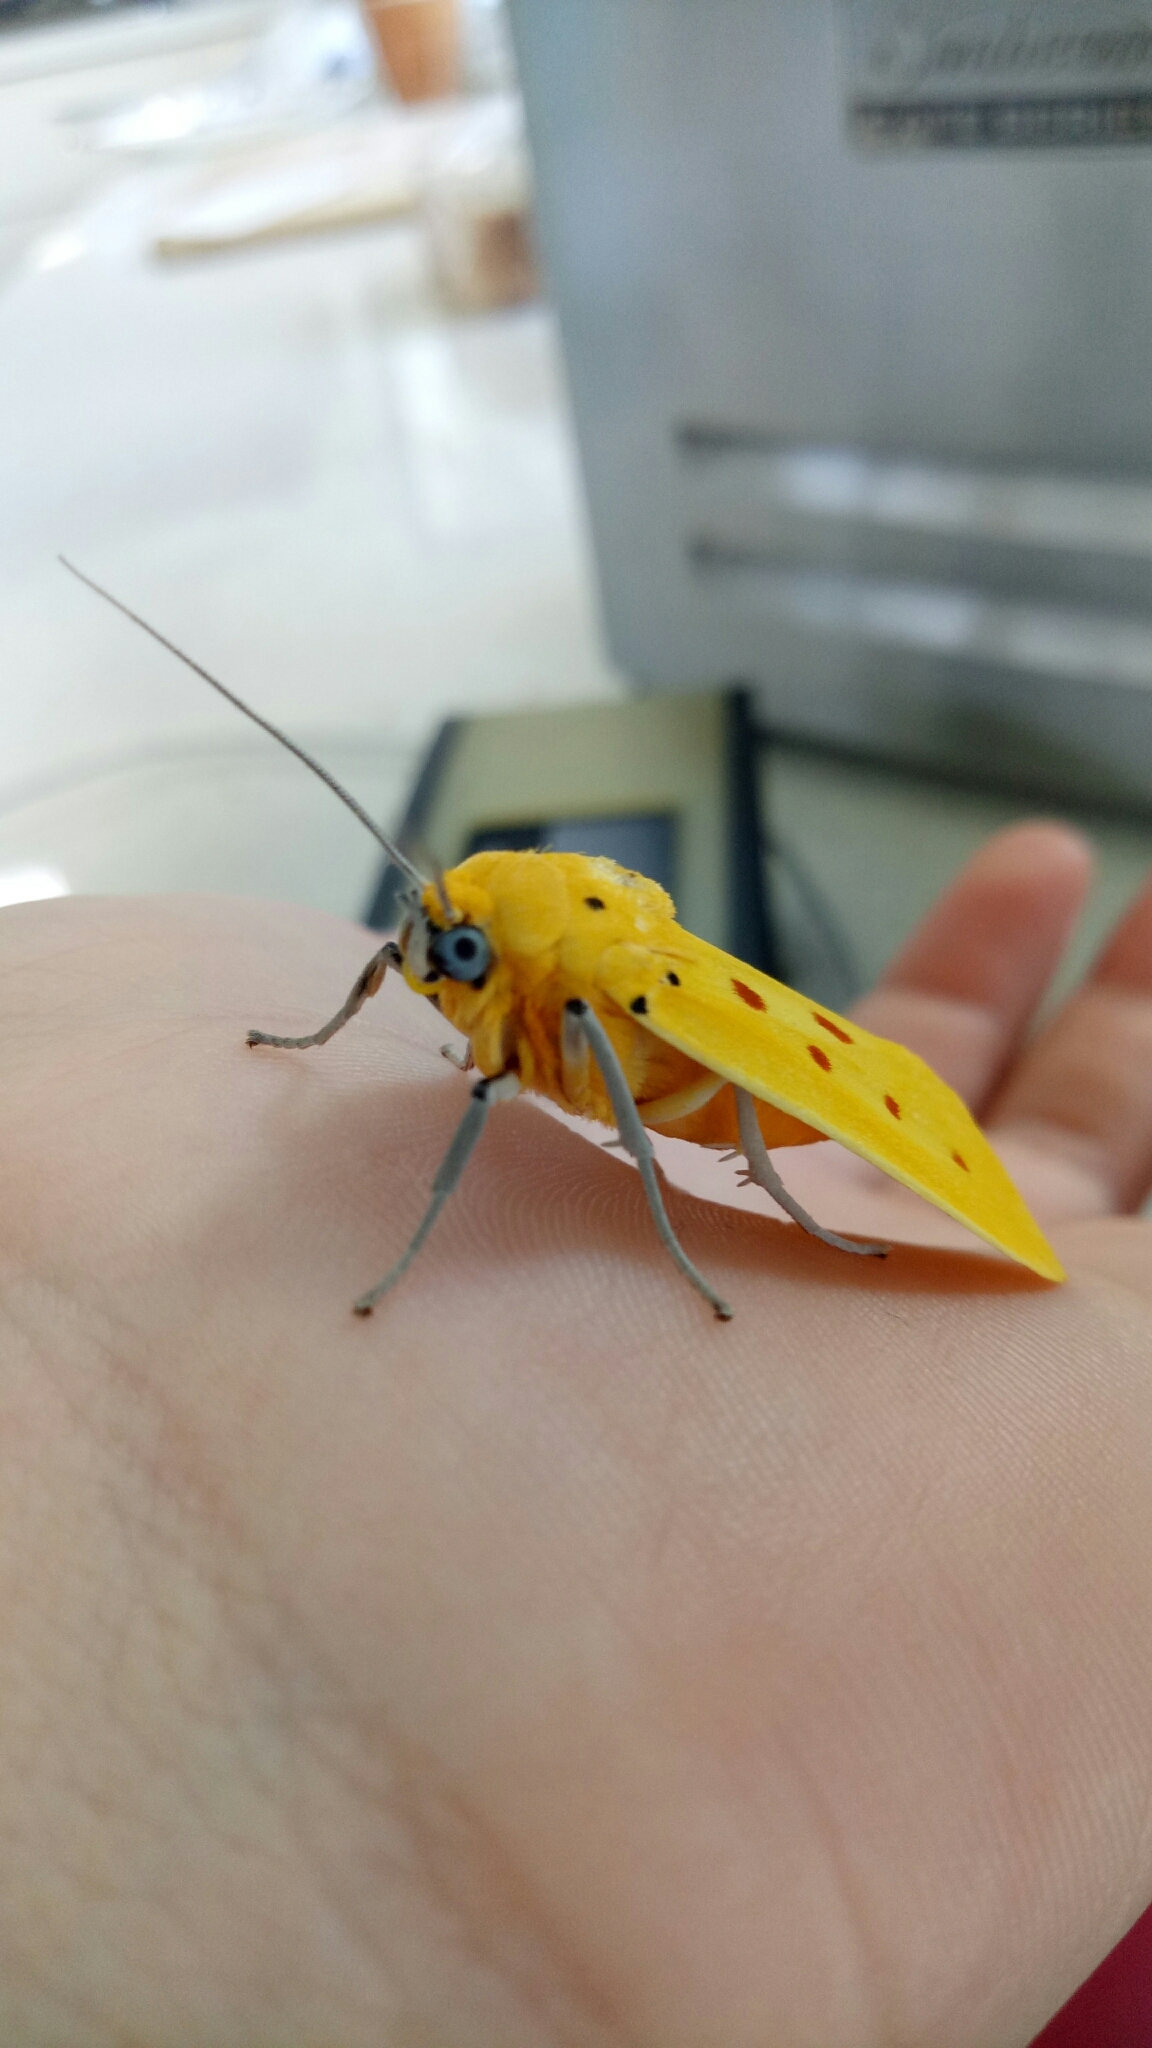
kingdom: Animalia
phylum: Arthropoda
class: Insecta
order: Lepidoptera
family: Noctuidae
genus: Agape
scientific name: Agape chloropyga
